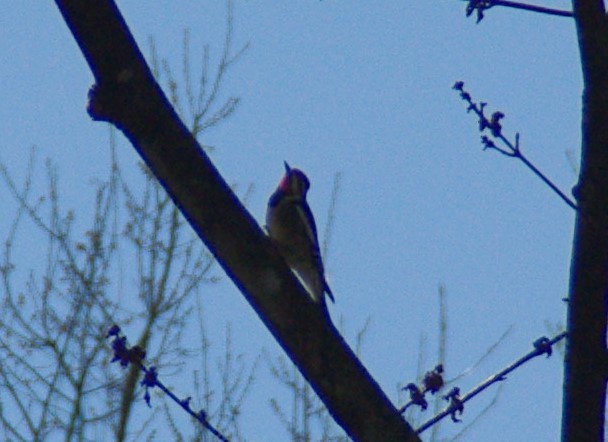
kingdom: Animalia
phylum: Chordata
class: Aves
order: Piciformes
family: Picidae
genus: Sphyrapicus
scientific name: Sphyrapicus varius
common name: Yellow-bellied sapsucker
